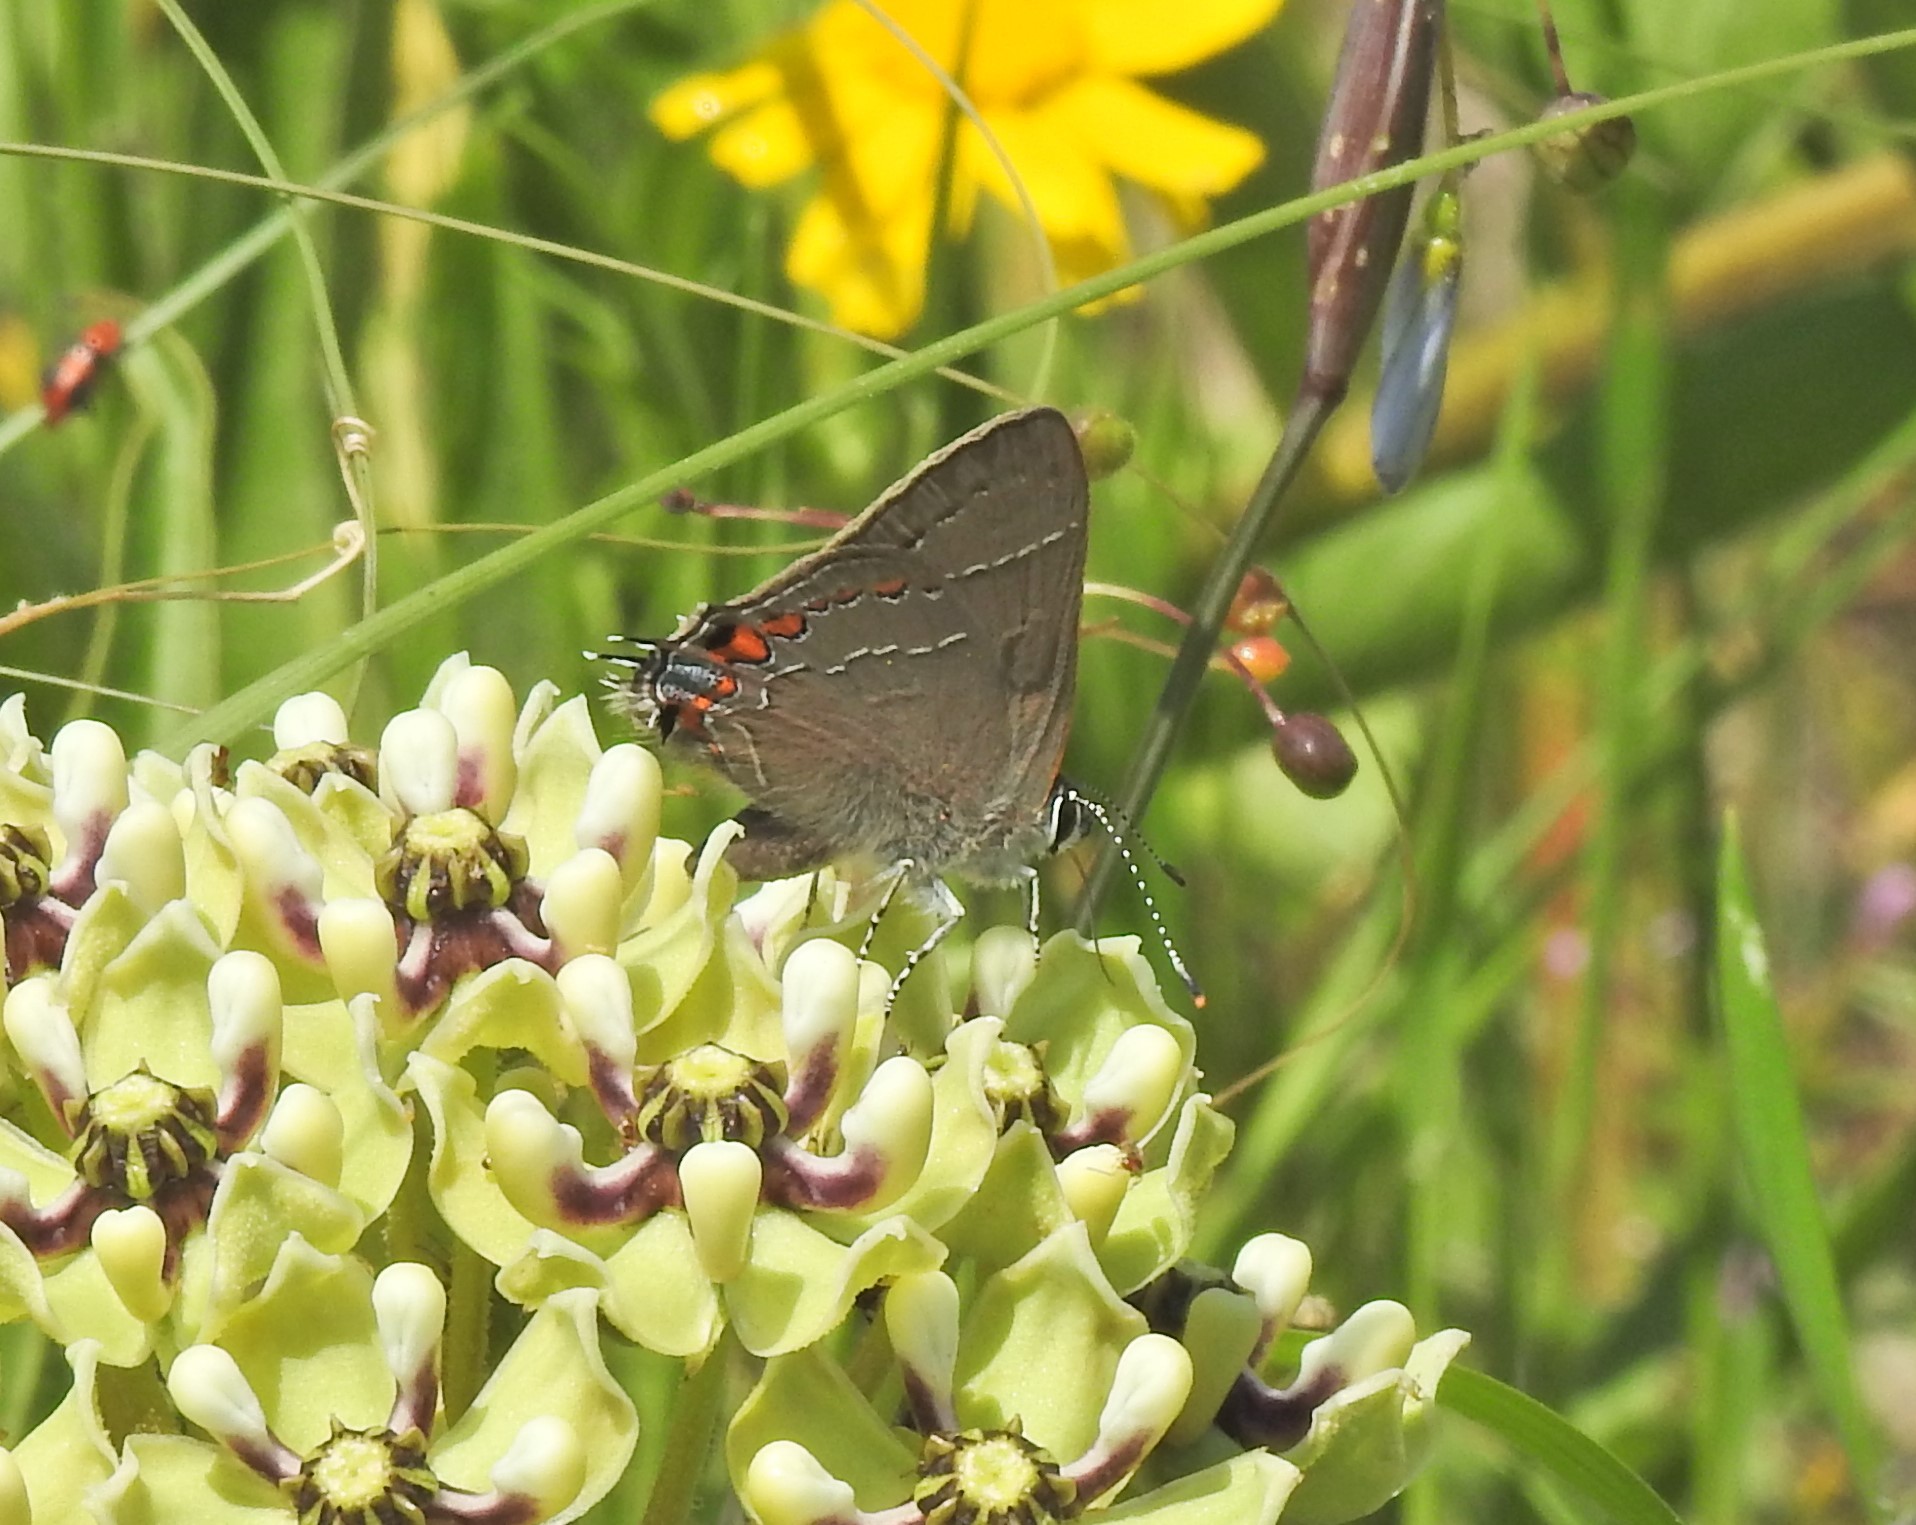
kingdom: Animalia
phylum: Arthropoda
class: Insecta
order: Lepidoptera
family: Lycaenidae
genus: Fixsenia
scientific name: Fixsenia favonius
